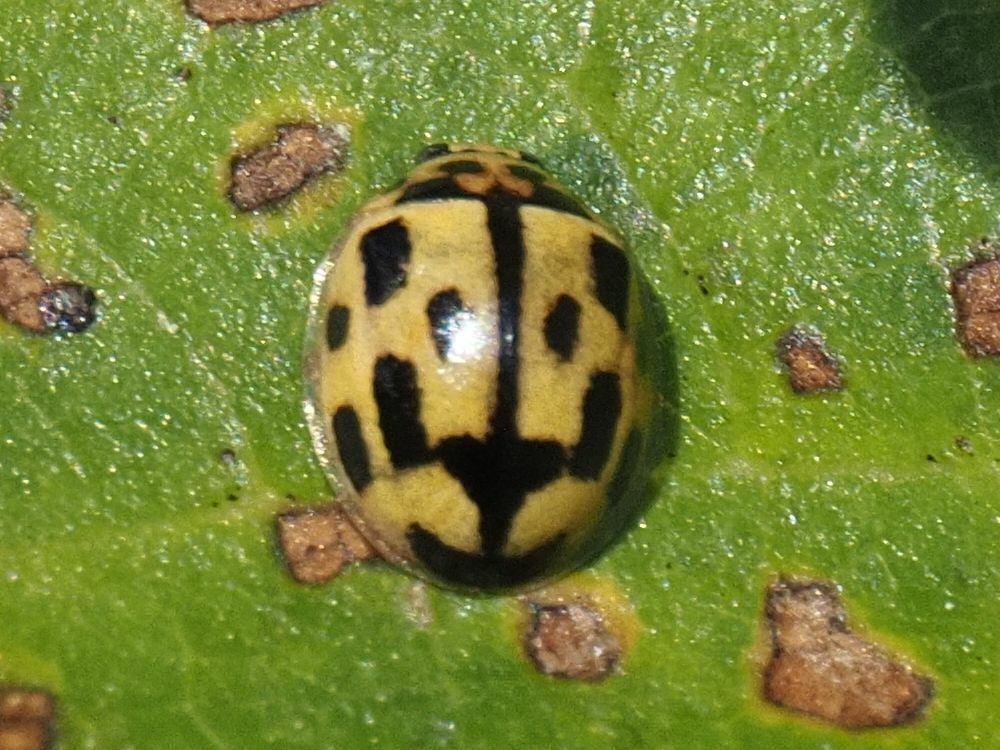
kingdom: Animalia
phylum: Arthropoda
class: Insecta
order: Coleoptera
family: Coccinellidae
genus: Propylaea
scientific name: Propylaea quatuordecimpunctata
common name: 14-spotted ladybird beetle
